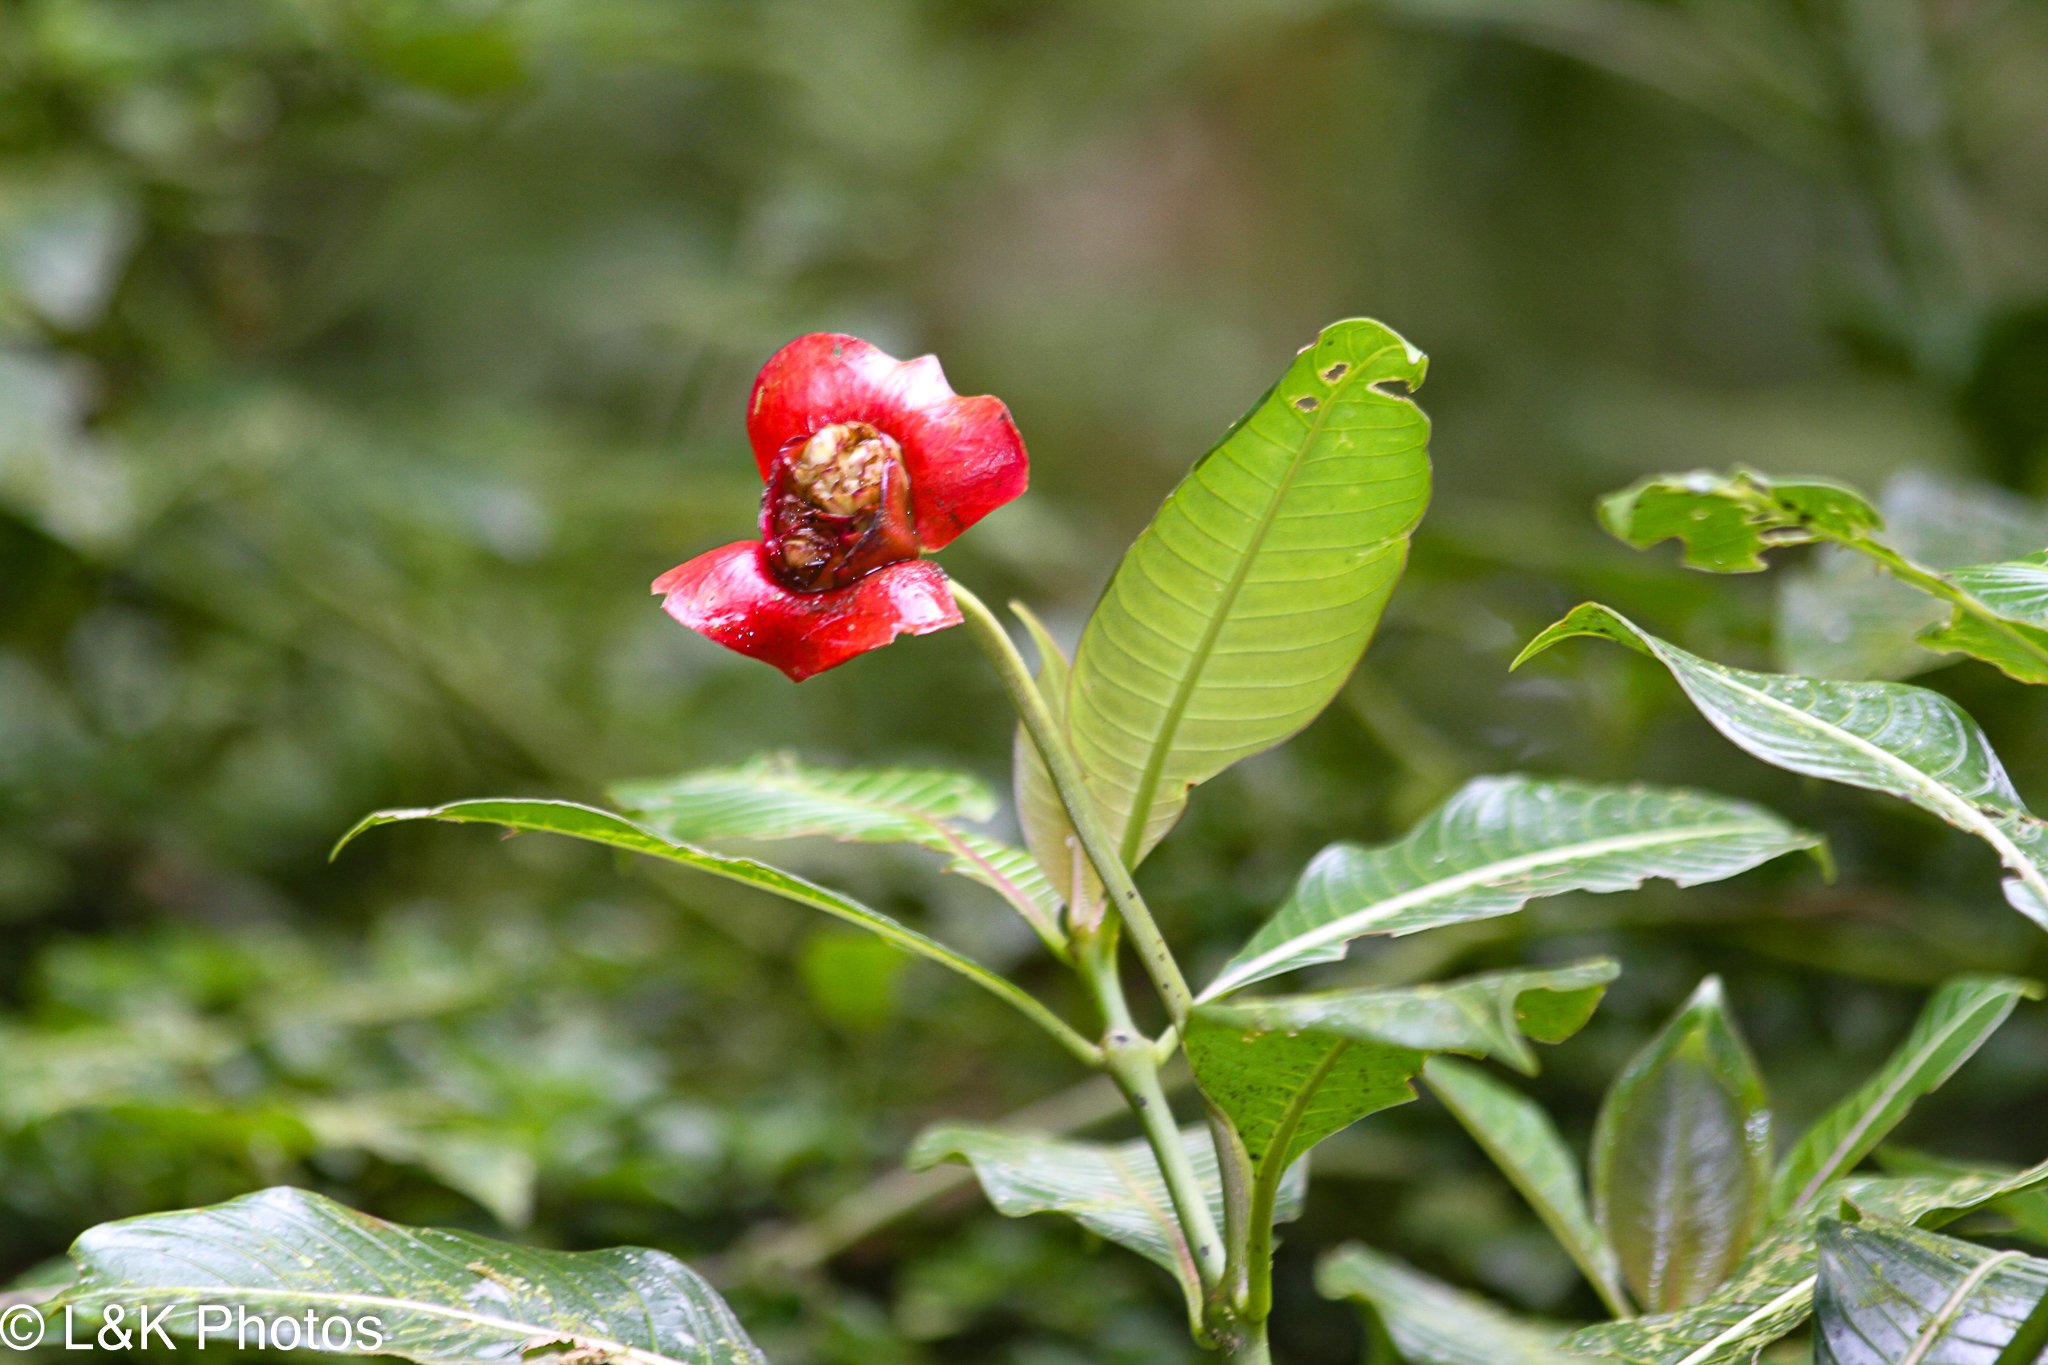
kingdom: Plantae
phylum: Tracheophyta
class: Magnoliopsida
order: Gentianales
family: Rubiaceae
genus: Palicourea
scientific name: Palicourea elata
